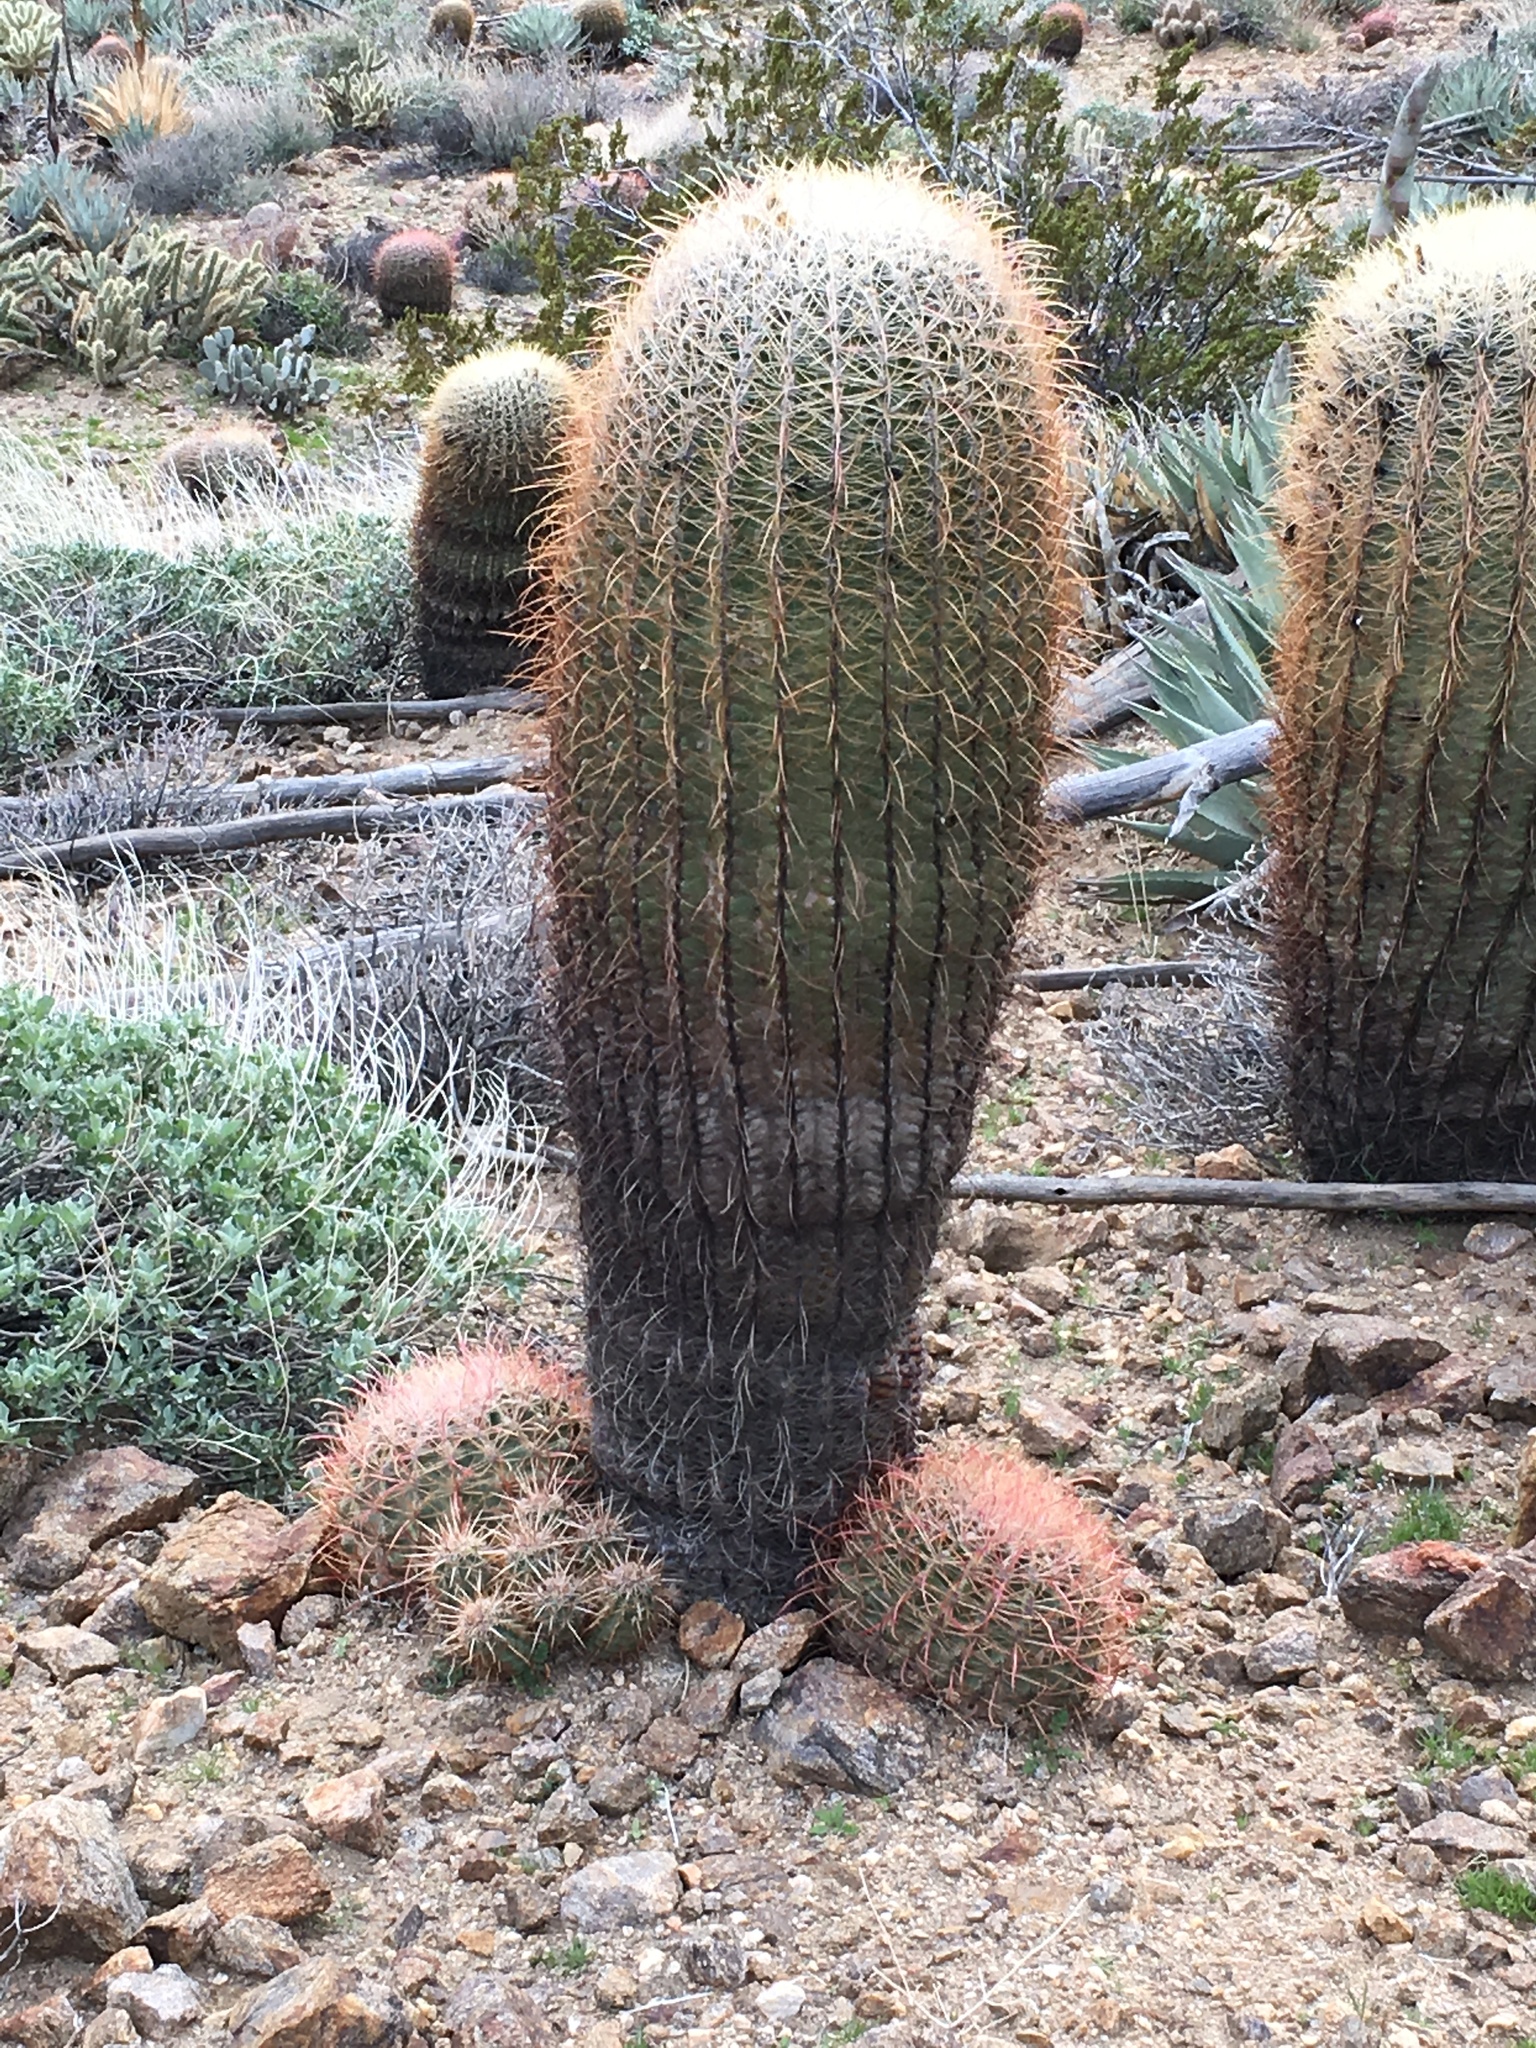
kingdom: Plantae
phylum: Tracheophyta
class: Magnoliopsida
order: Caryophyllales
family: Cactaceae
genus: Ferocactus
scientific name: Ferocactus cylindraceus
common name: California barrel cactus
